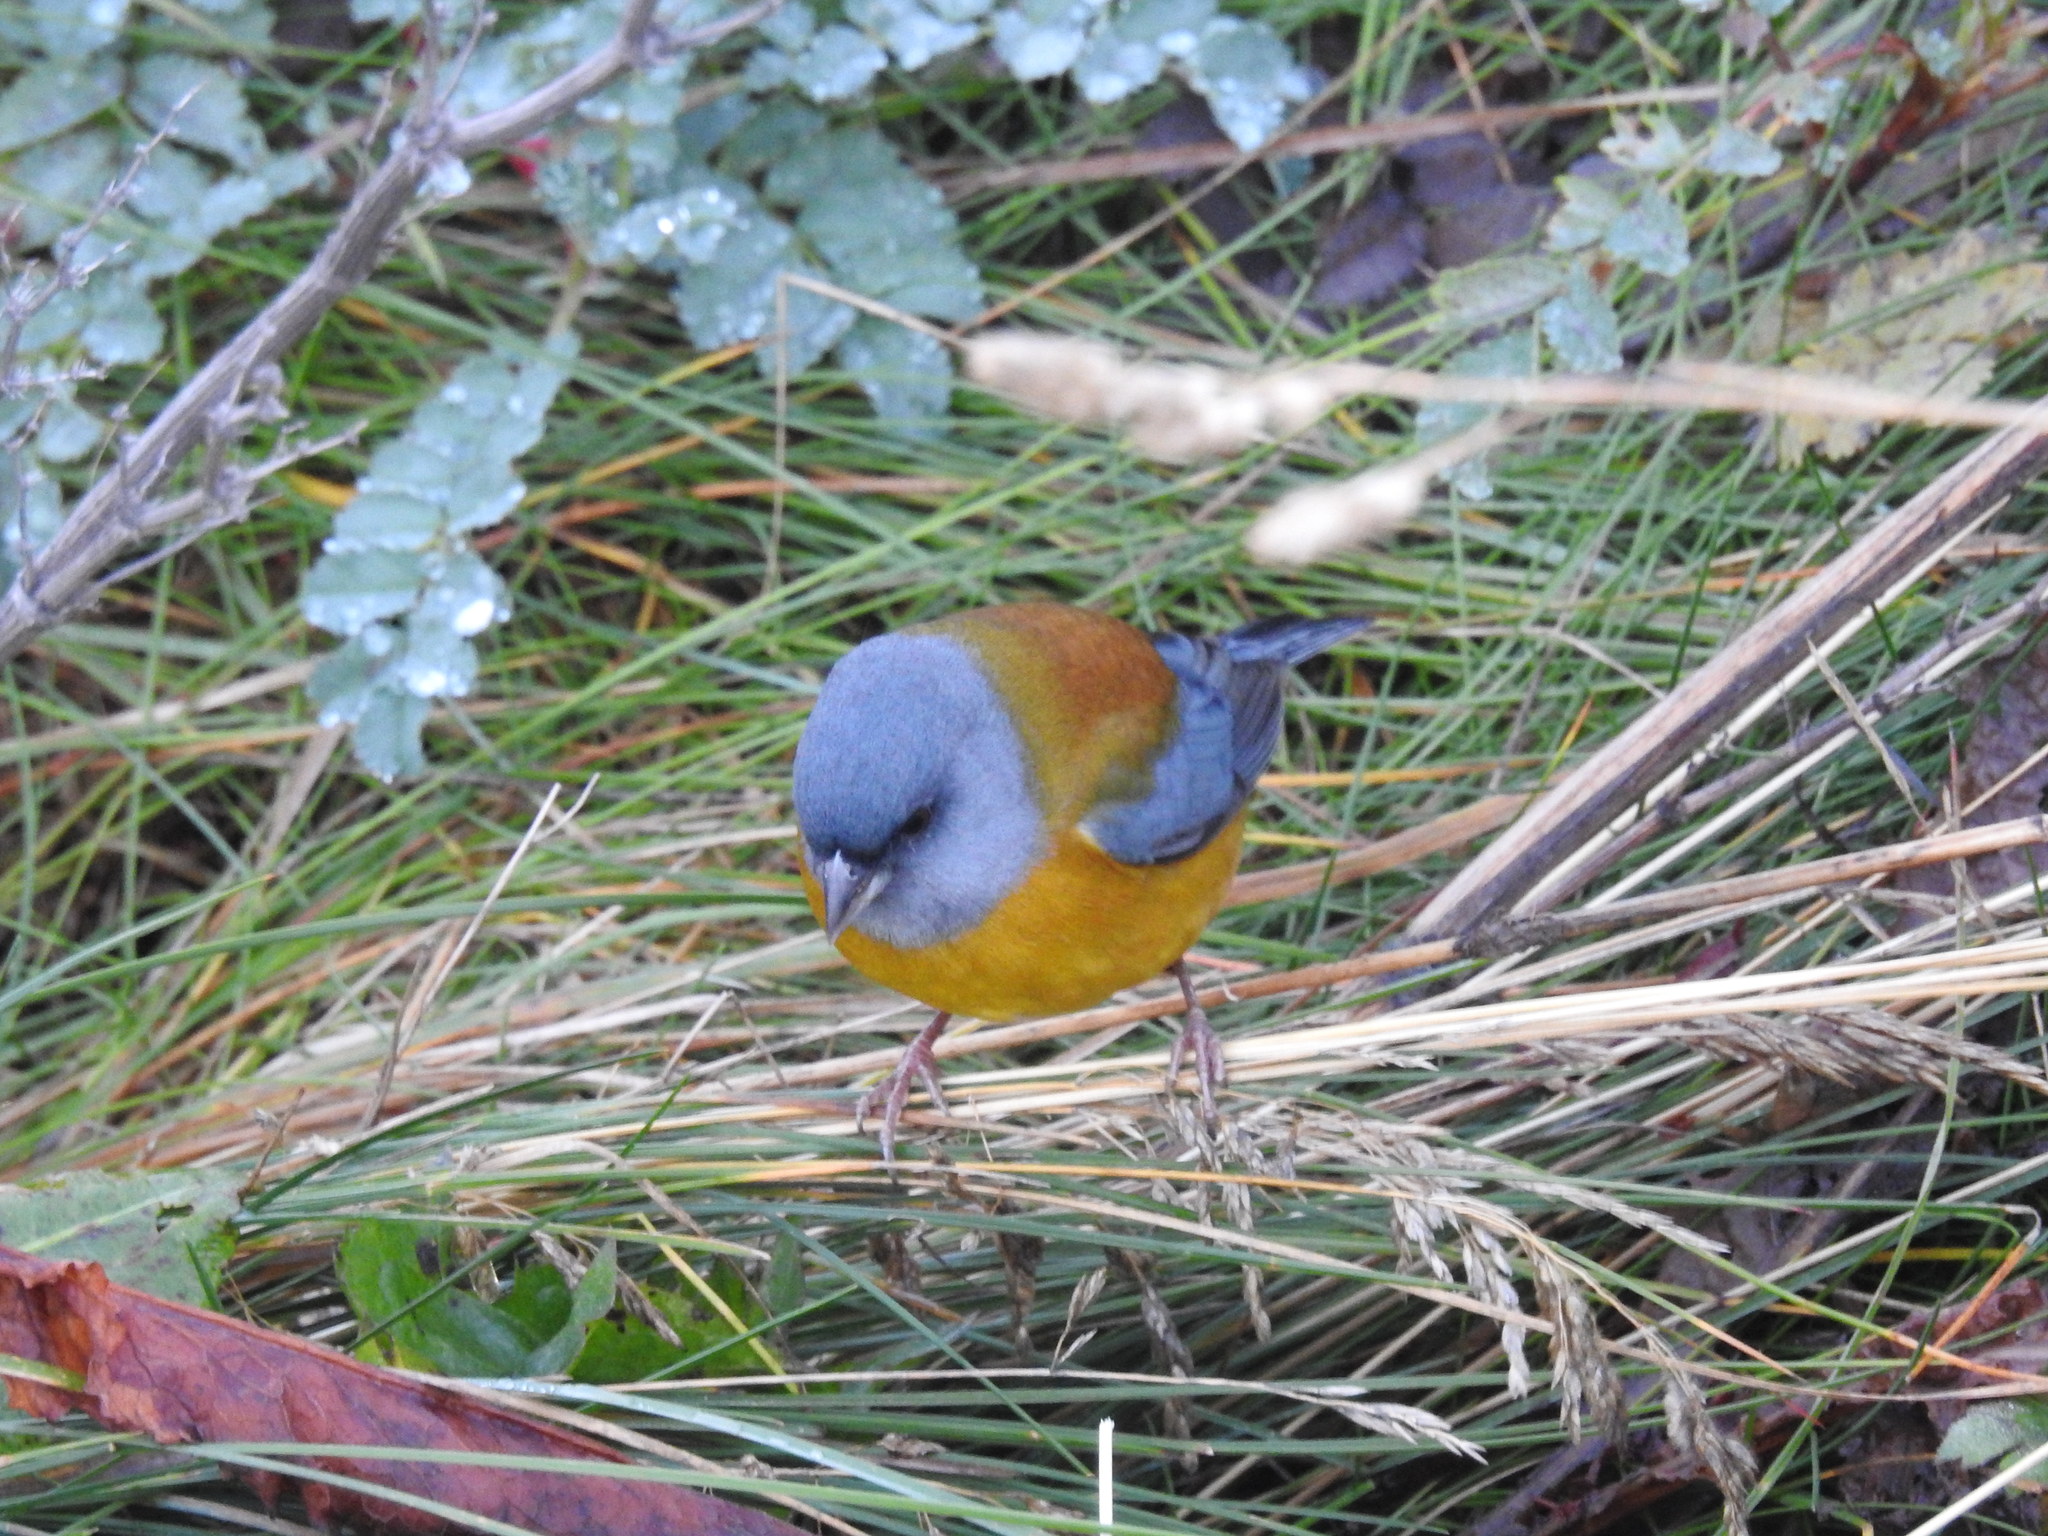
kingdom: Animalia
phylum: Chordata
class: Aves
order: Passeriformes
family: Thraupidae
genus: Phrygilus
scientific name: Phrygilus patagonicus
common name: Patagonian sierra finch
